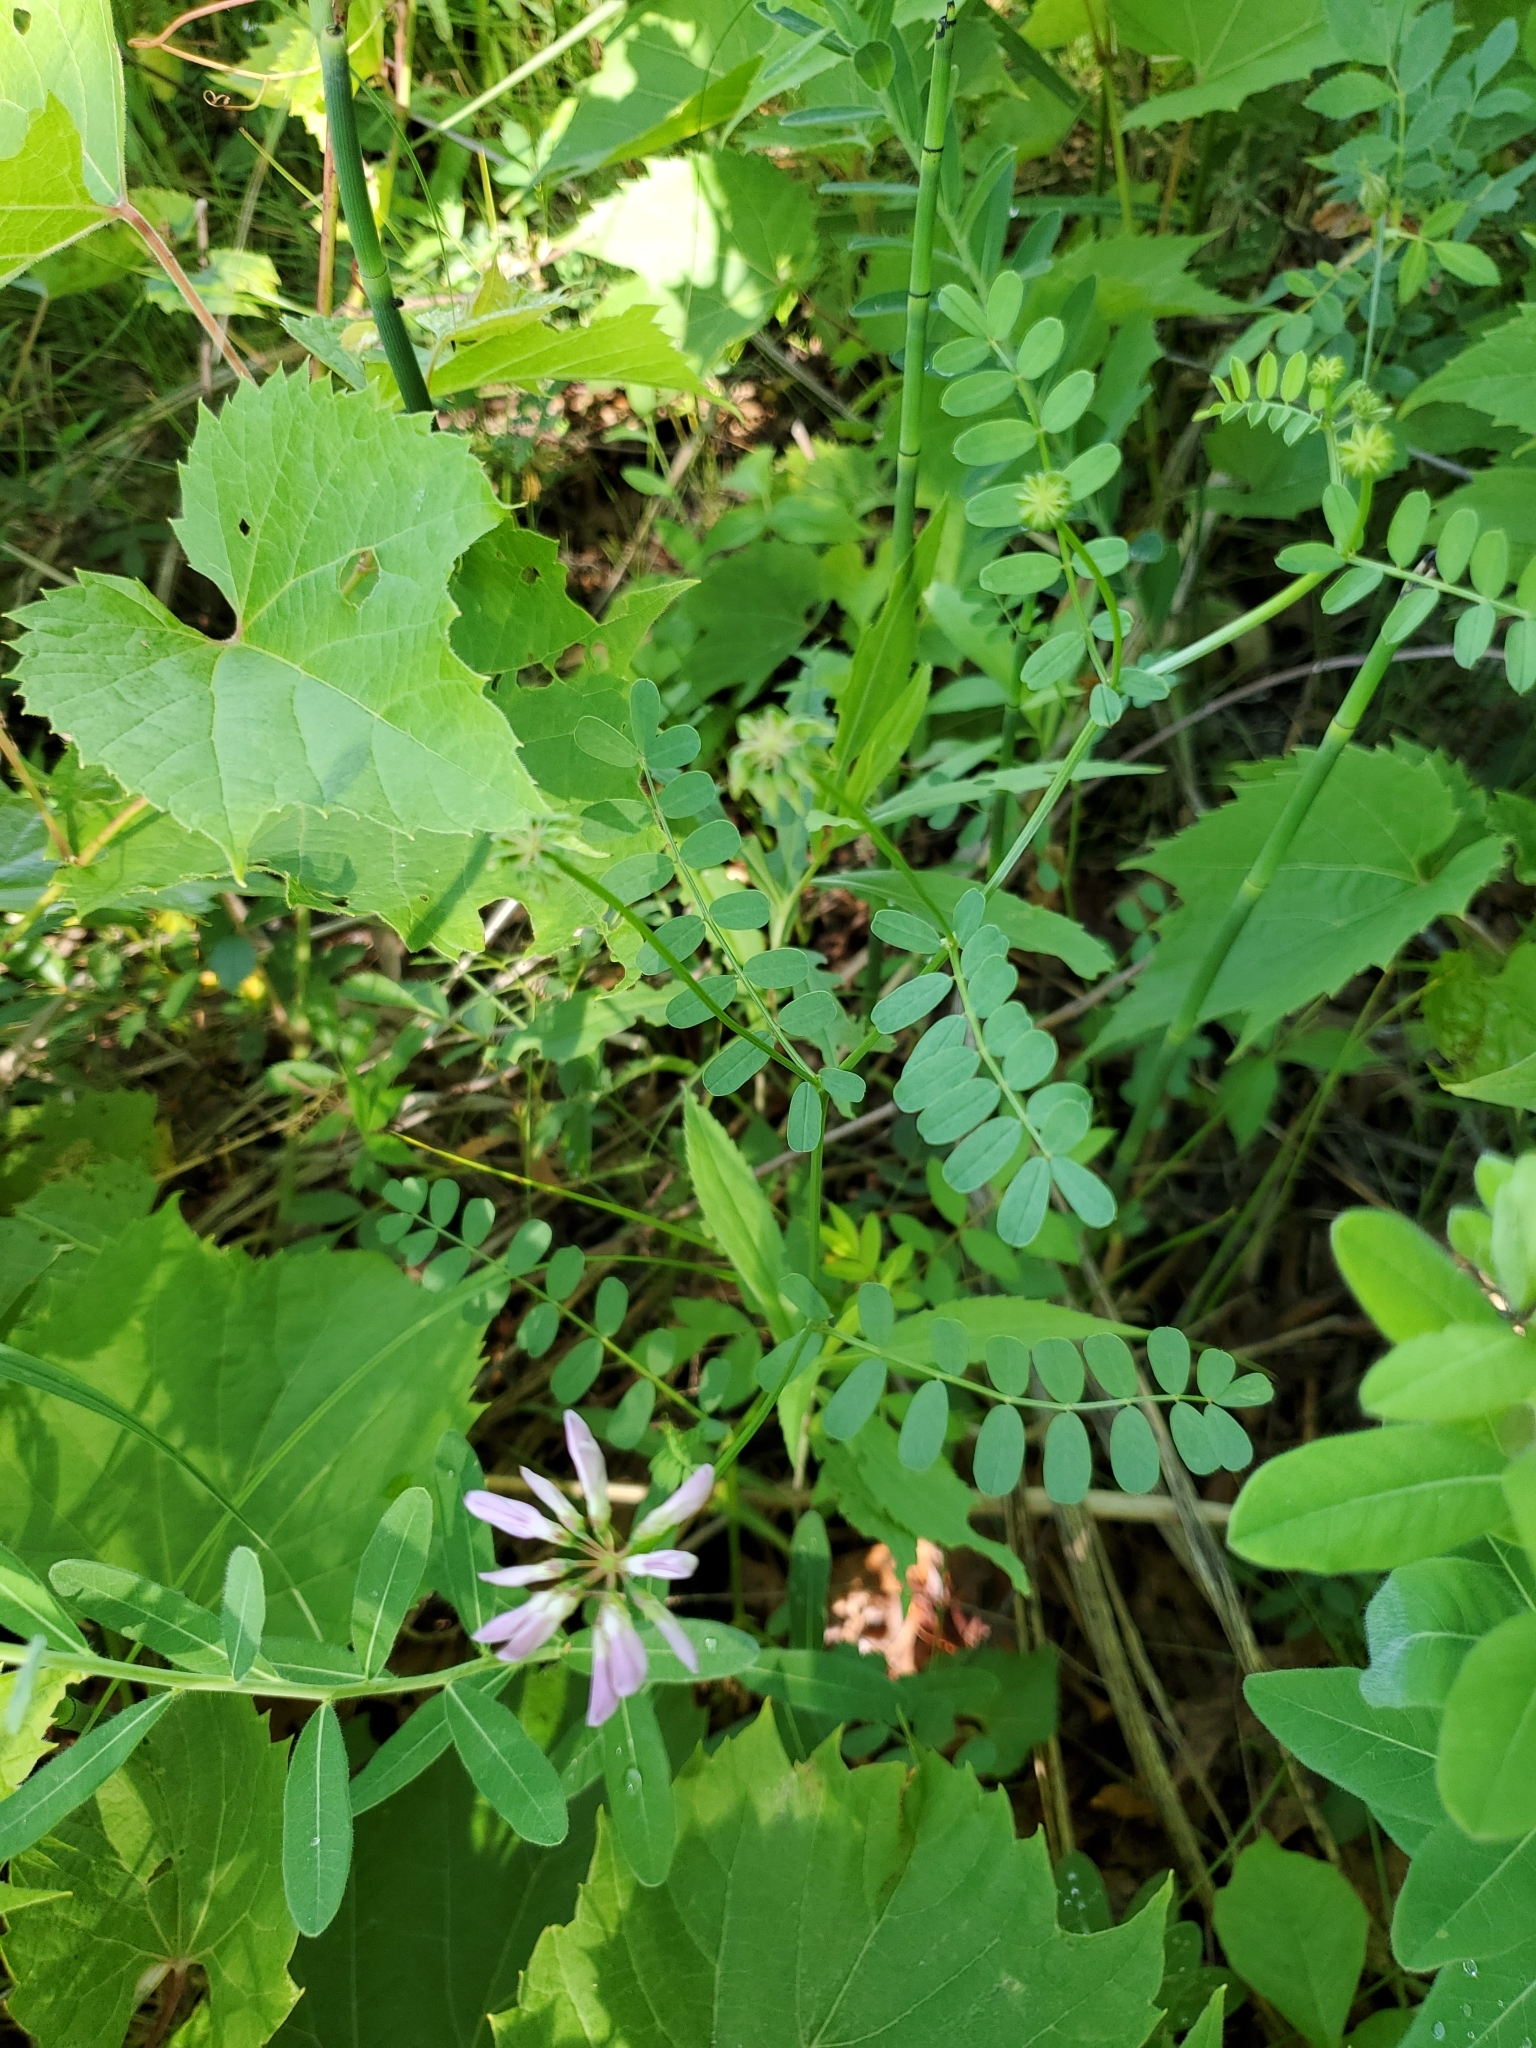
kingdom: Plantae
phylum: Tracheophyta
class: Magnoliopsida
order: Fabales
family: Fabaceae
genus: Coronilla
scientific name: Coronilla varia
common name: Crownvetch
